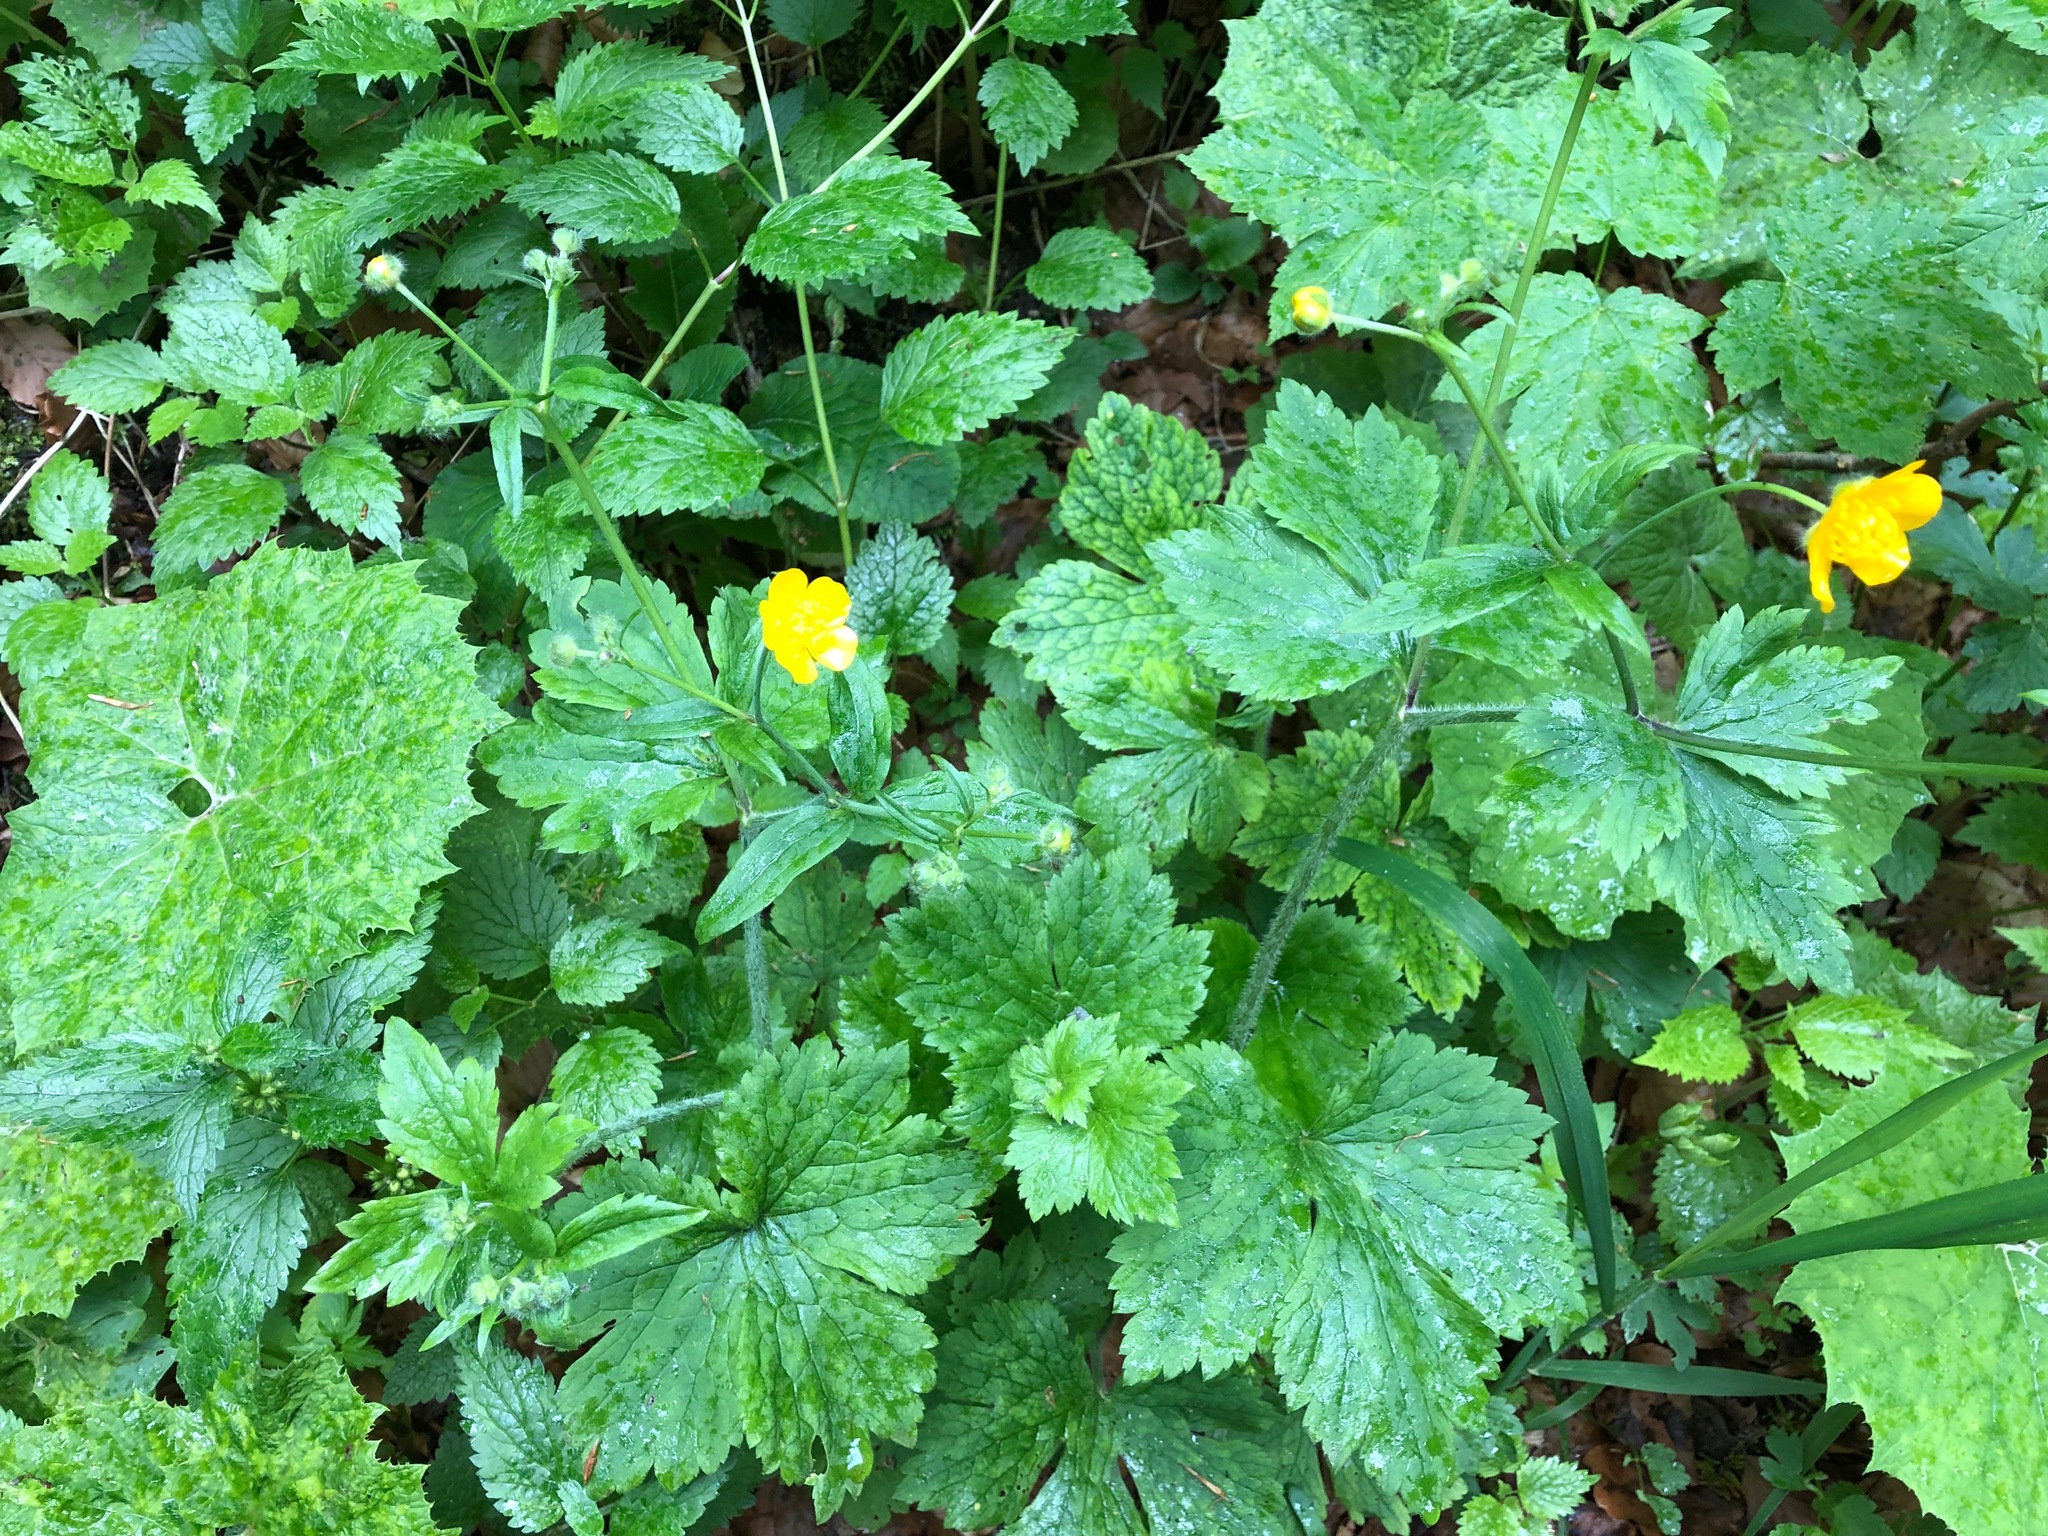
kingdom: Plantae
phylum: Tracheophyta
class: Magnoliopsida
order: Ranunculales
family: Ranunculaceae
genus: Ranunculus
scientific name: Ranunculus lanuginosus
